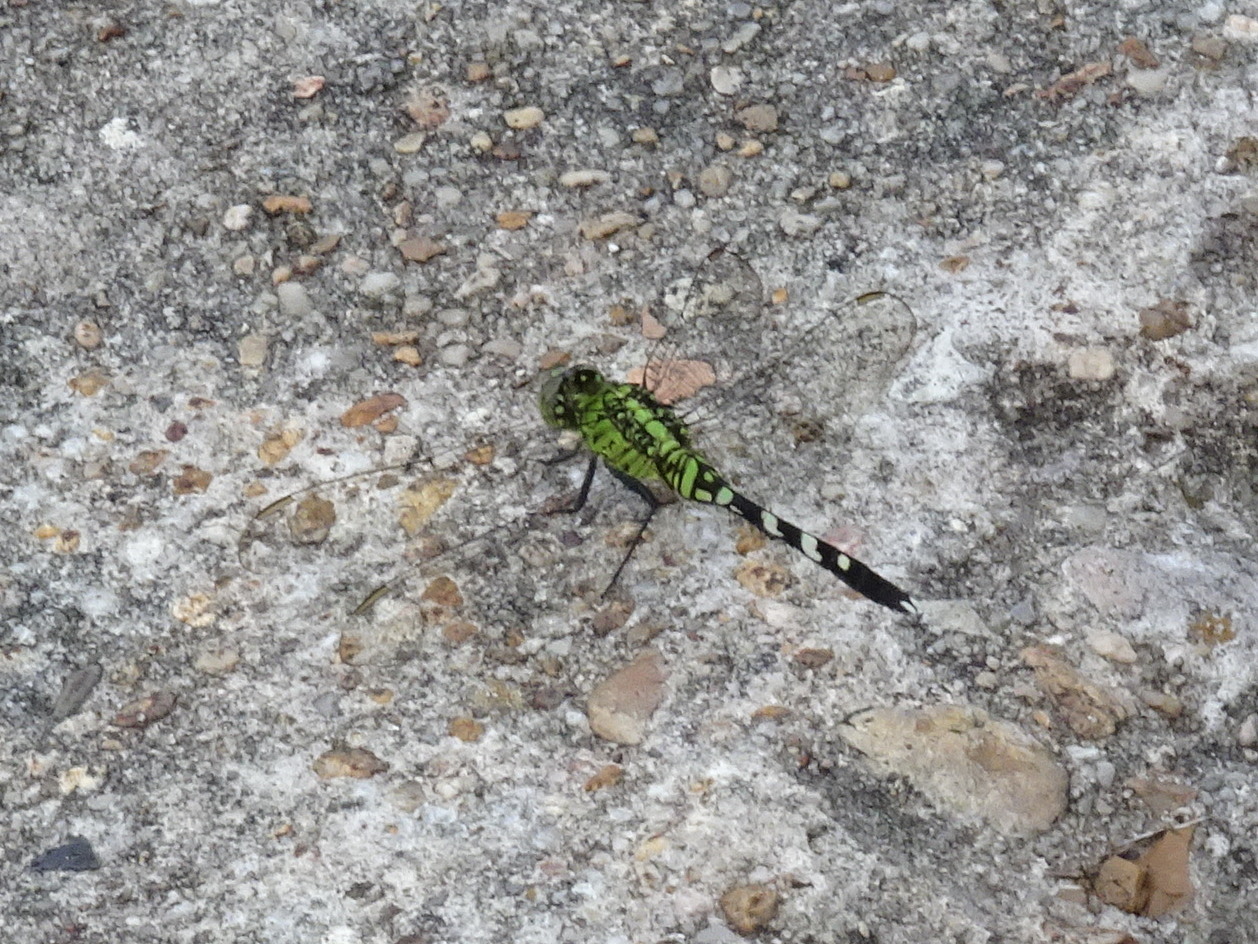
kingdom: Animalia
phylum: Arthropoda
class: Insecta
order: Odonata
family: Libellulidae
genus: Erythemis
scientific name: Erythemis simplicicollis
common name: Eastern pondhawk
